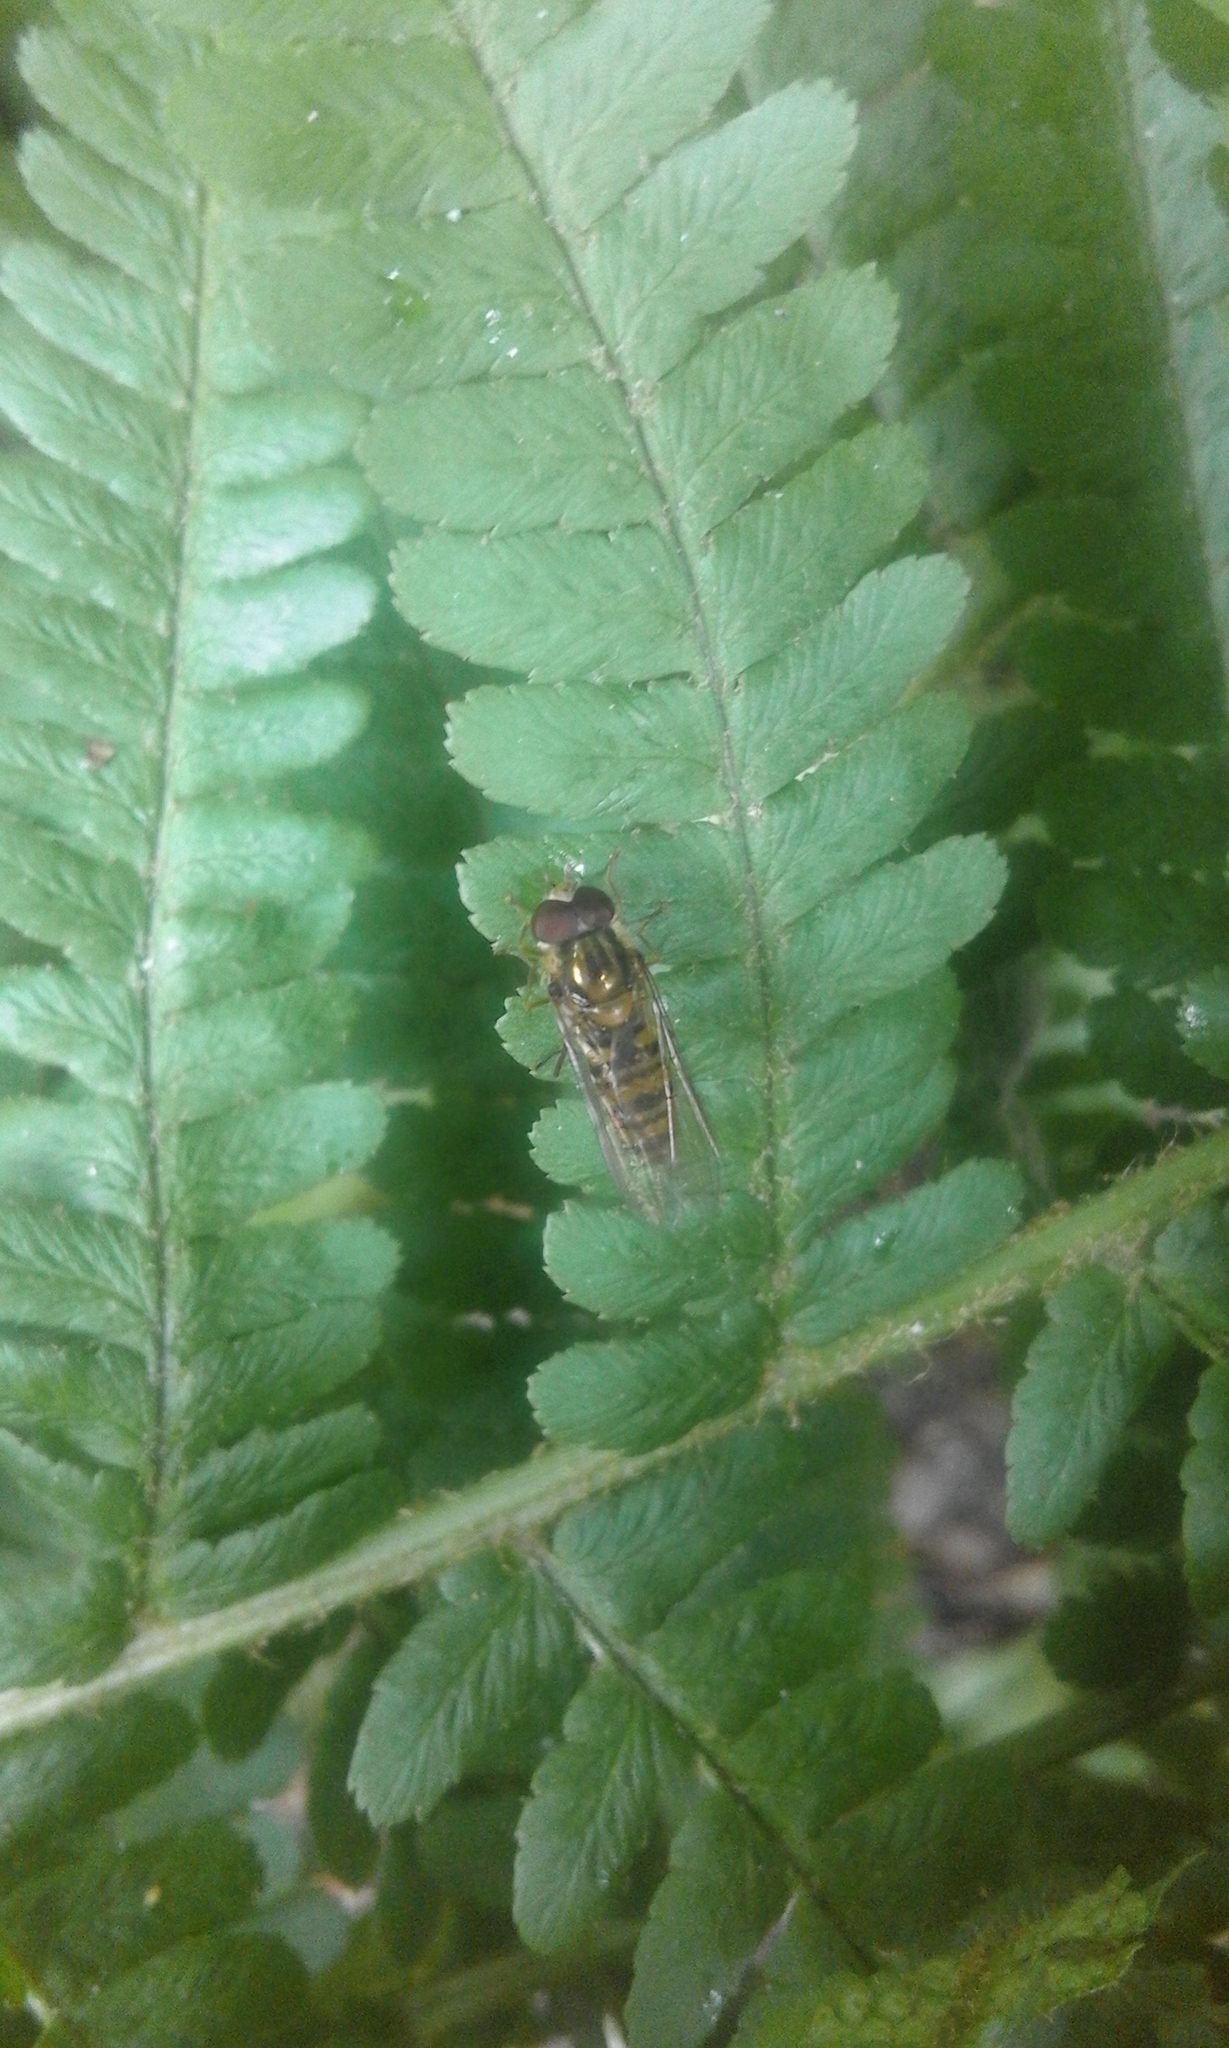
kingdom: Animalia
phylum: Arthropoda
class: Insecta
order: Diptera
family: Syrphidae
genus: Episyrphus
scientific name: Episyrphus balteatus
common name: Marmalade hoverfly
